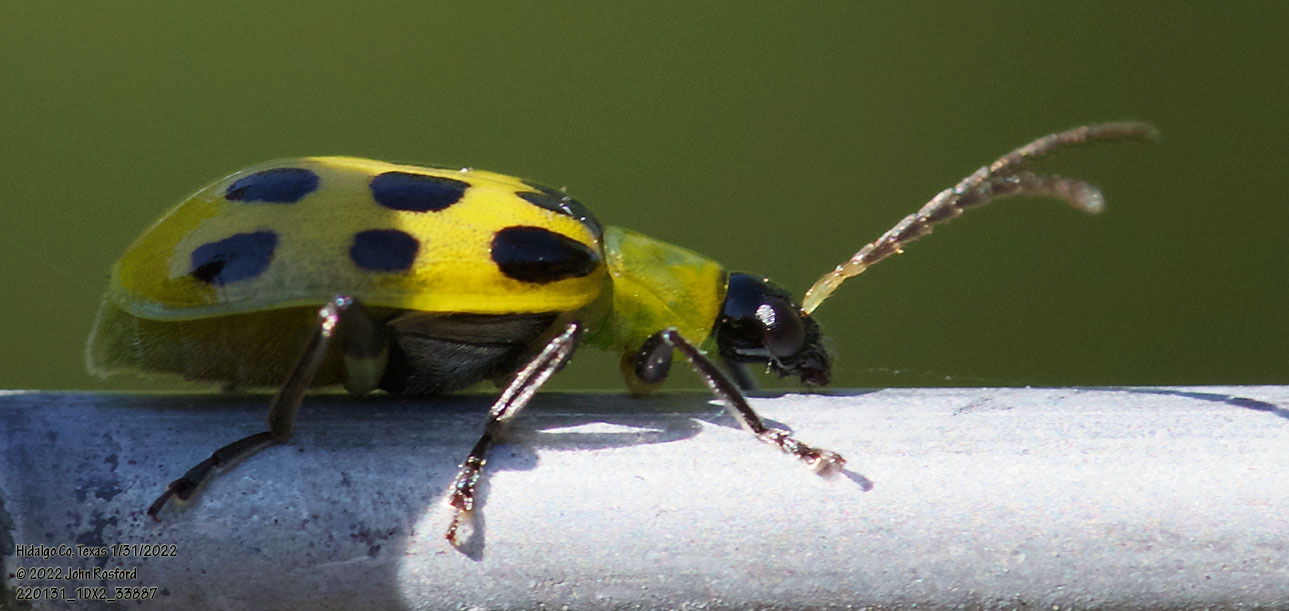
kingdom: Animalia
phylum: Arthropoda
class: Insecta
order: Coleoptera
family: Chrysomelidae
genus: Diabrotica
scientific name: Diabrotica undecimpunctata
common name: Spotted cucumber beetle
